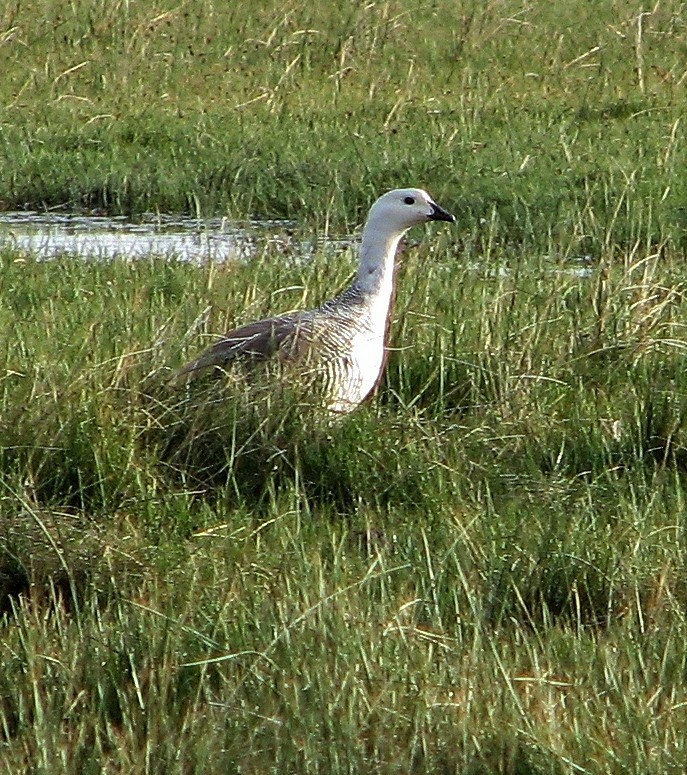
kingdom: Animalia
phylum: Chordata
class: Aves
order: Anseriformes
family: Anatidae
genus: Chloephaga
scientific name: Chloephaga picta
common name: Upland goose
